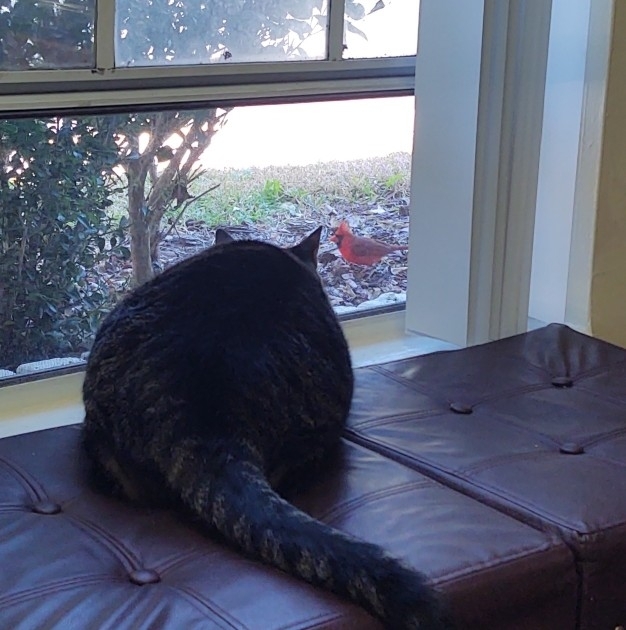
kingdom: Animalia
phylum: Chordata
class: Aves
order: Passeriformes
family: Cardinalidae
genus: Cardinalis
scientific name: Cardinalis cardinalis
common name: Northern cardinal
